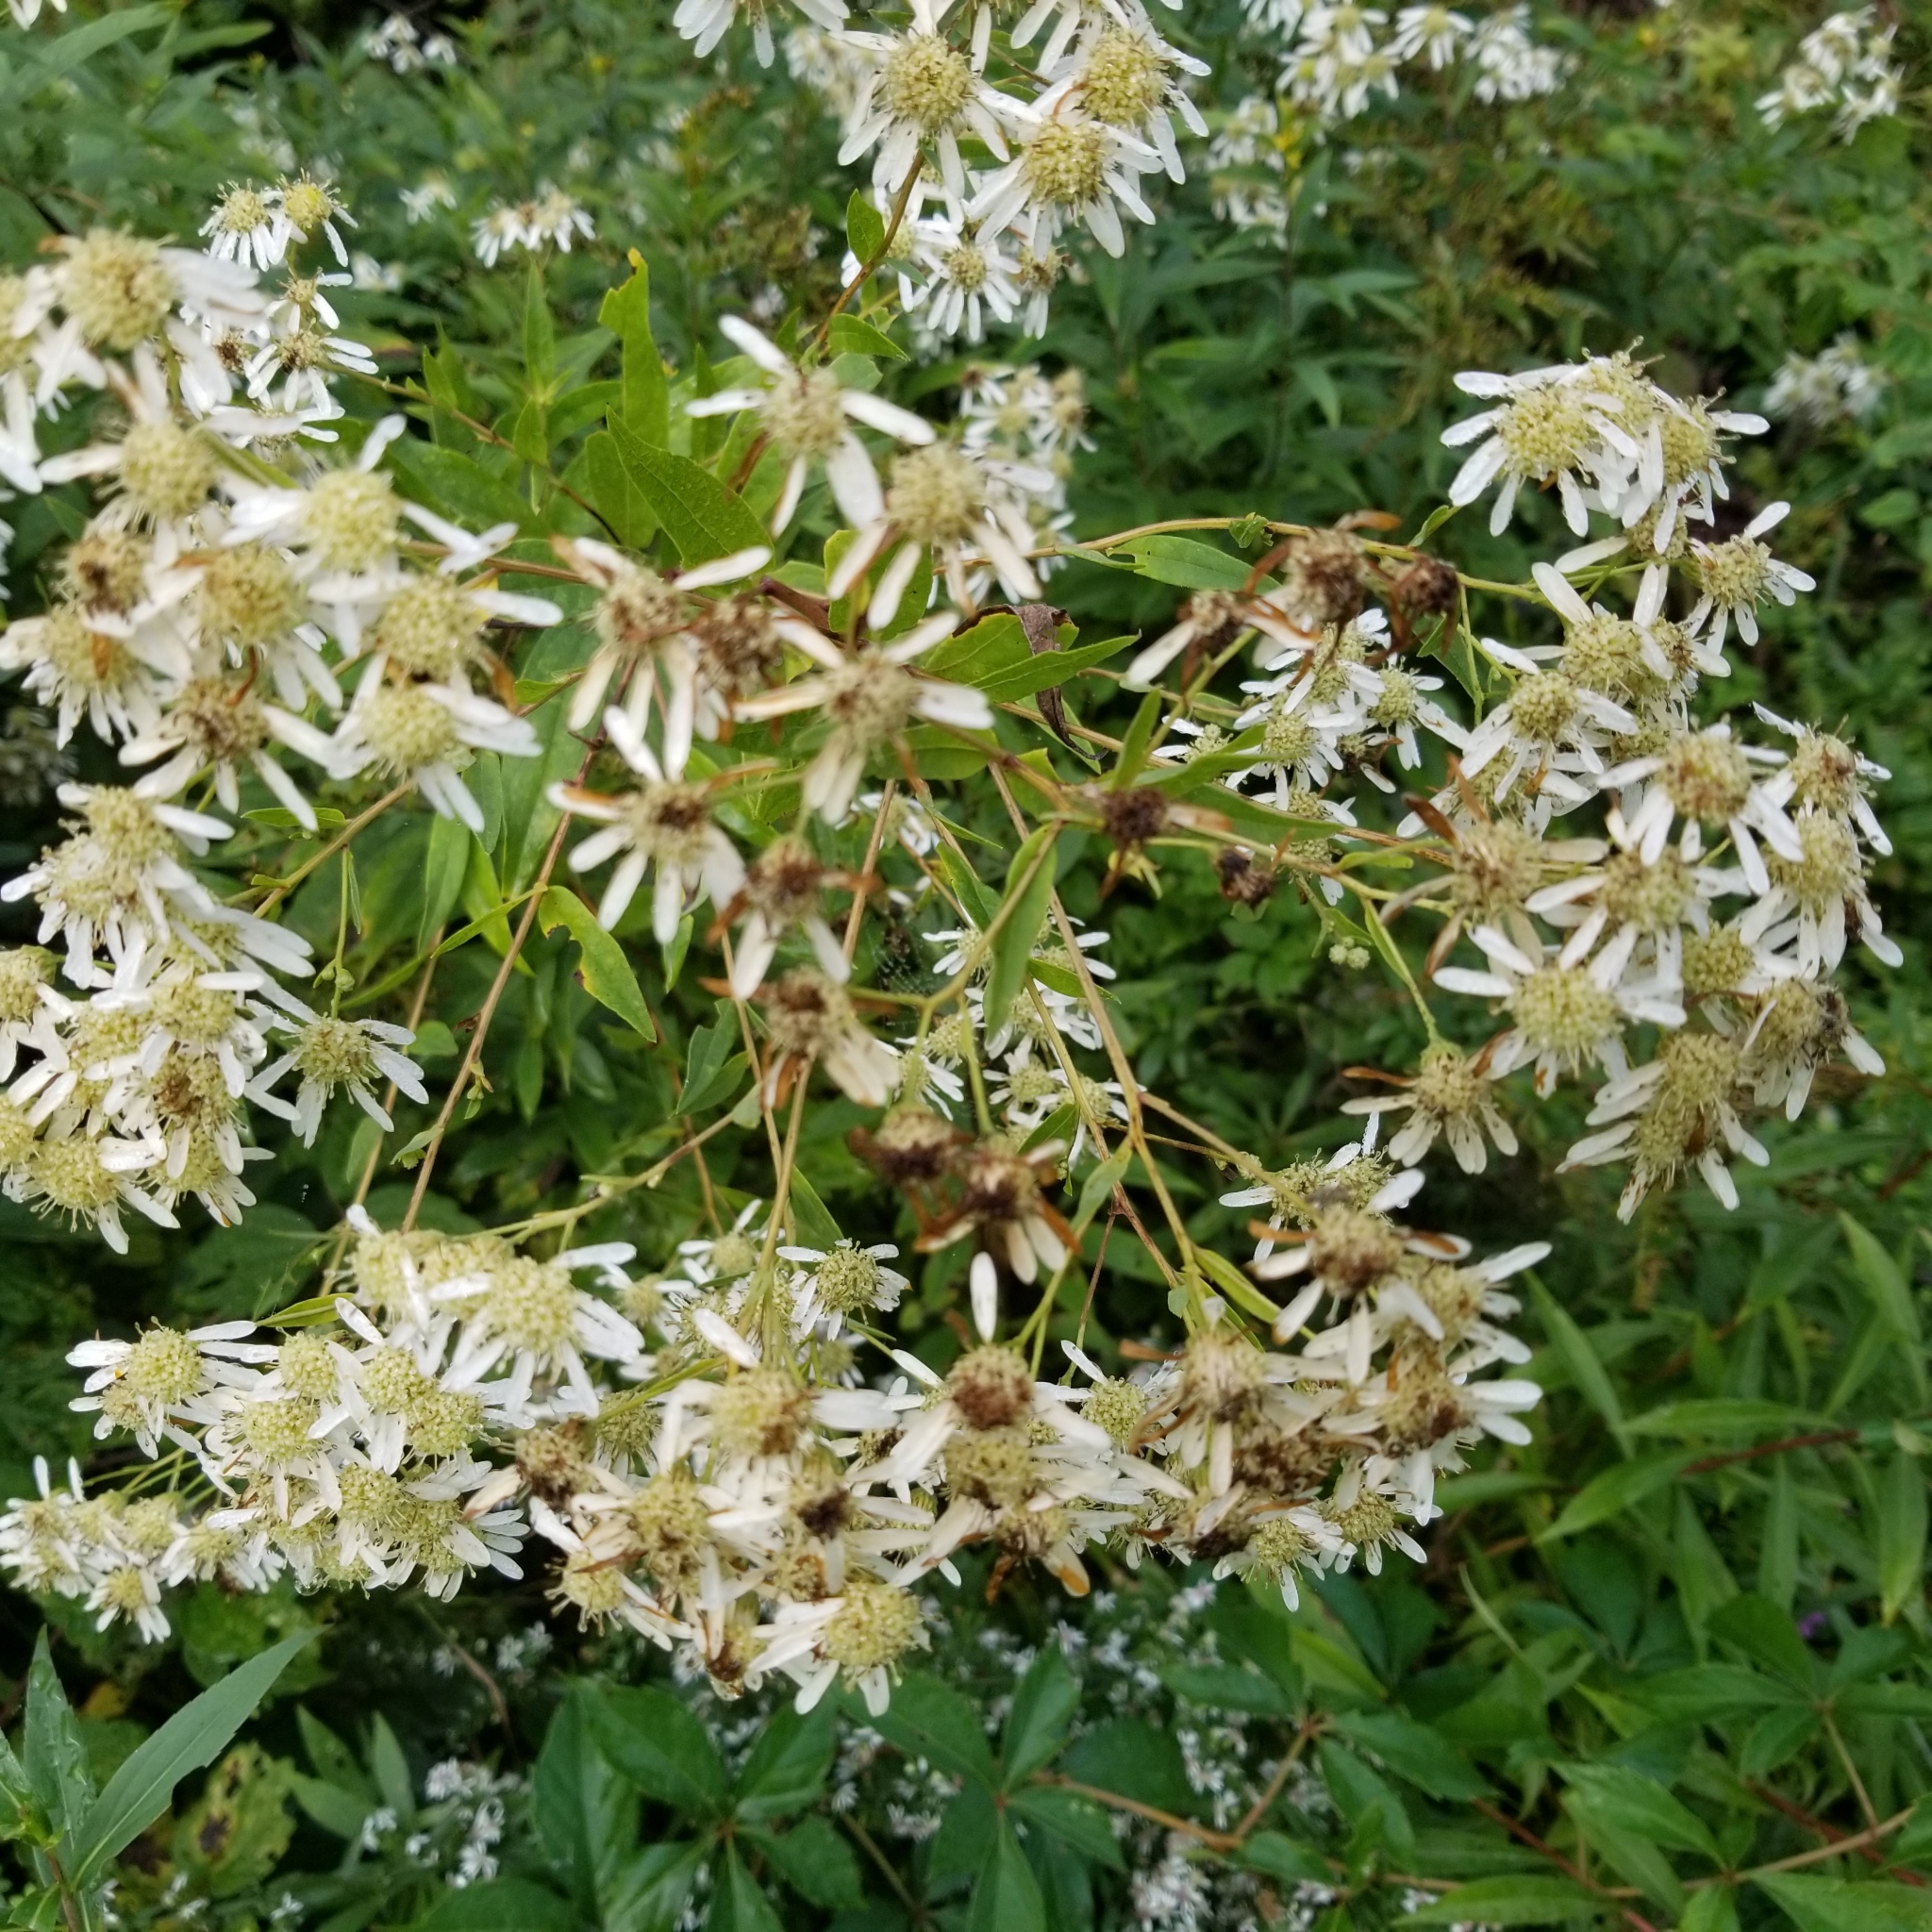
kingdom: Plantae
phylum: Tracheophyta
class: Magnoliopsida
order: Asterales
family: Asteraceae
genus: Doellingeria
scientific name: Doellingeria umbellata
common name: Flat-top white aster
